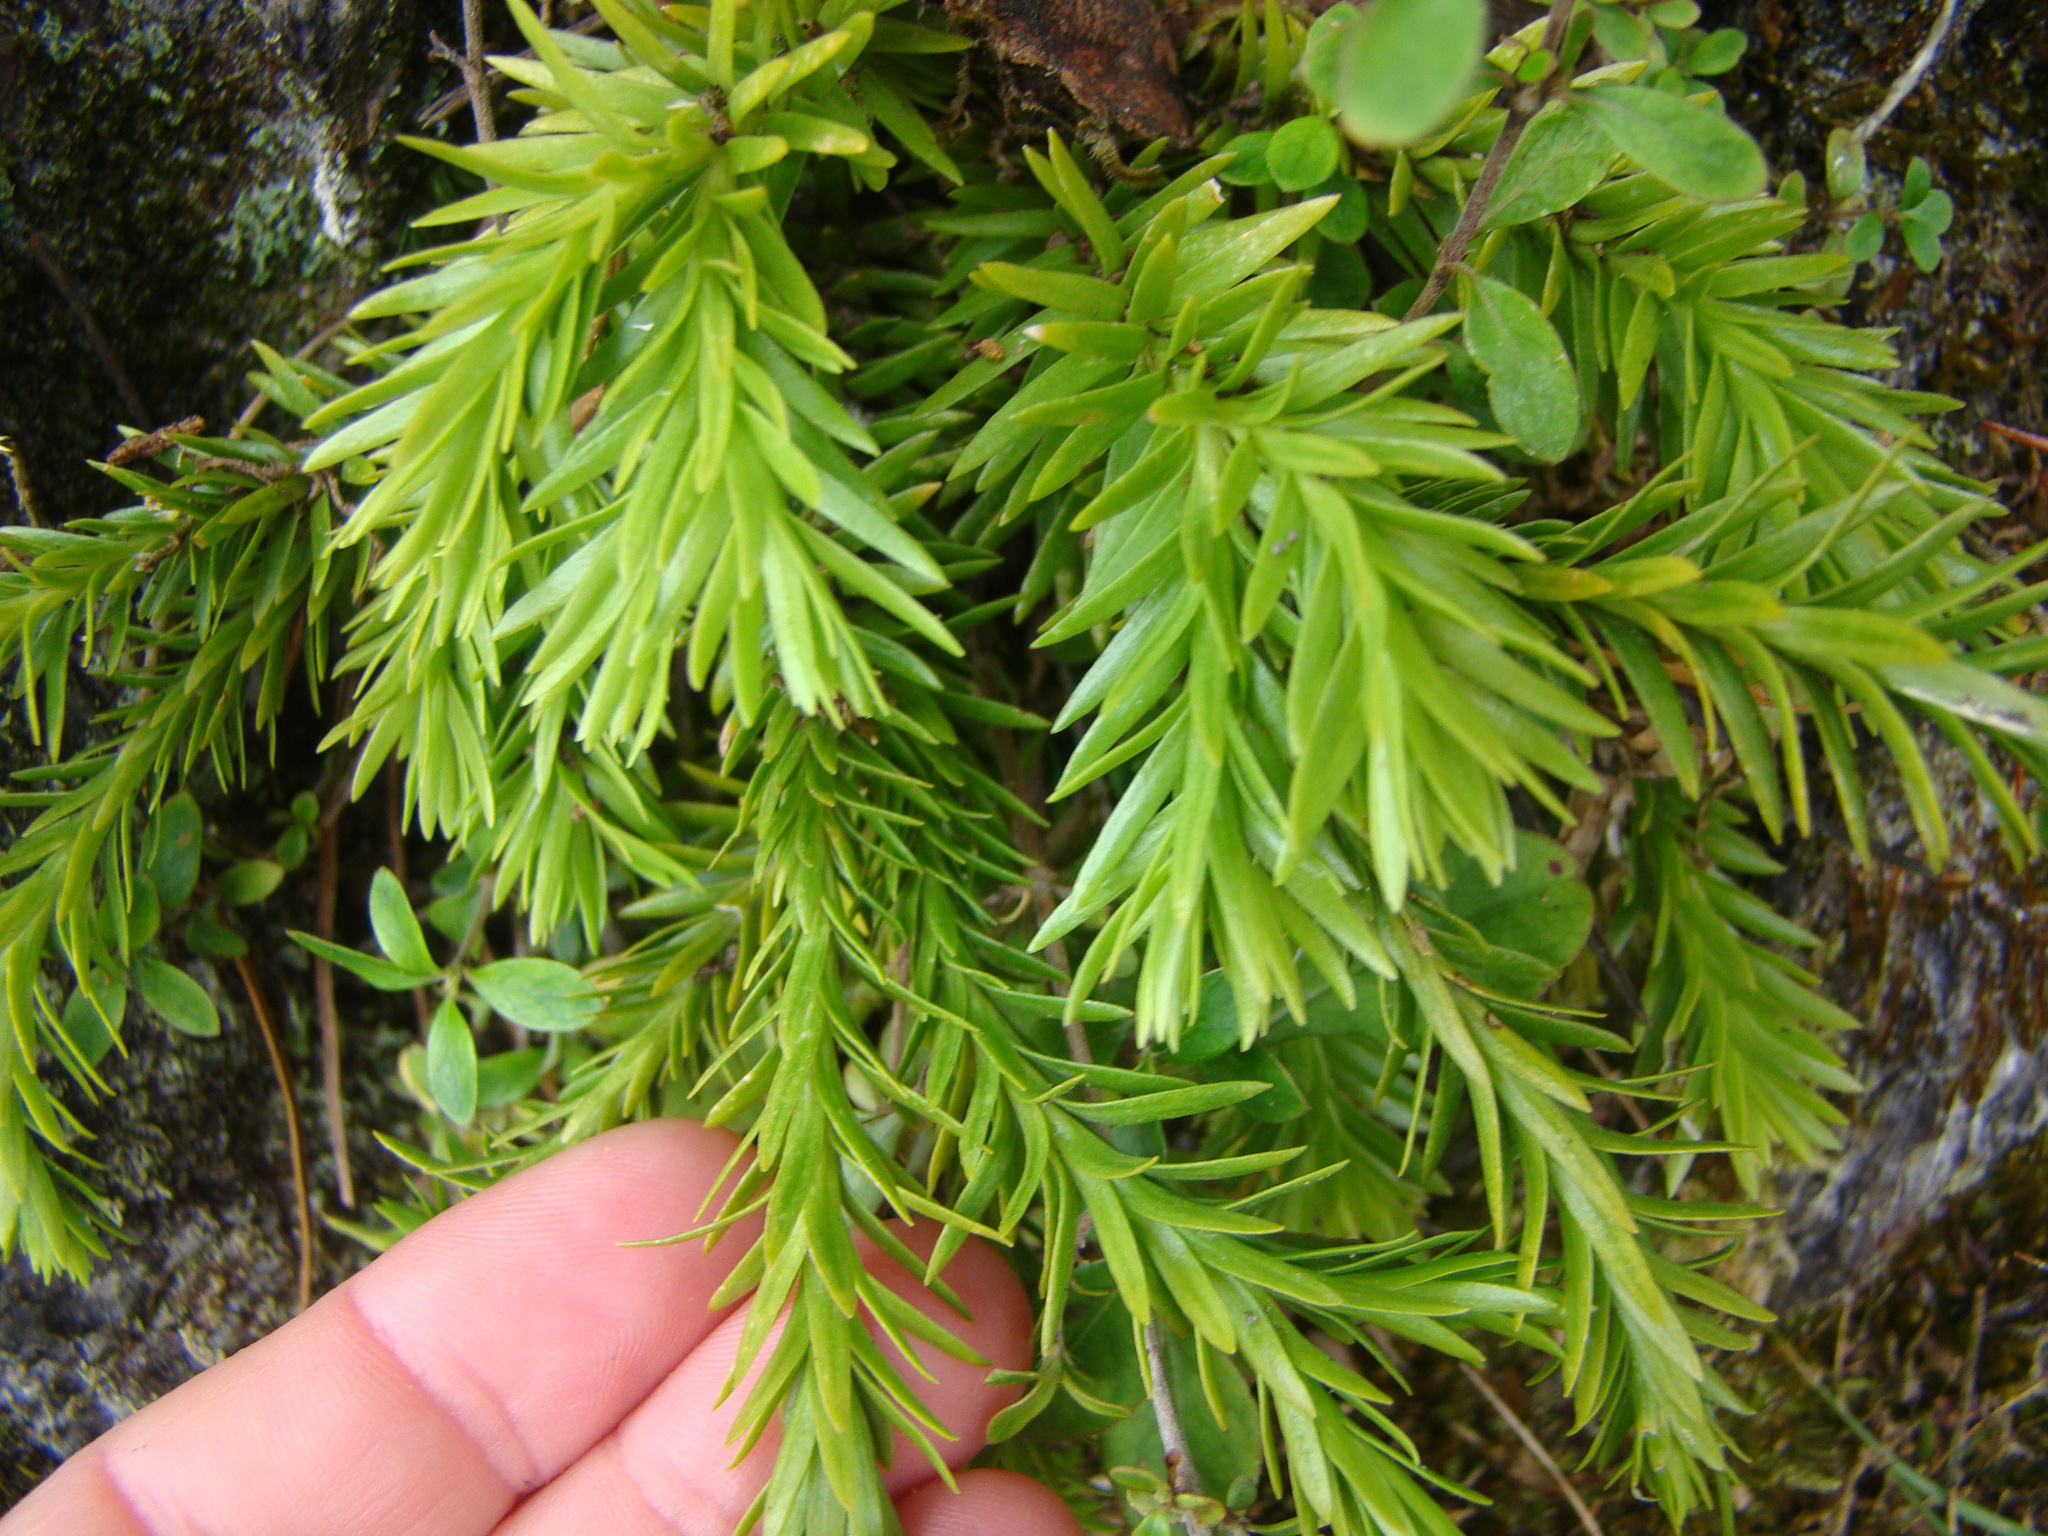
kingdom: Plantae
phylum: Tracheophyta
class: Lycopodiopsida
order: Lycopodiales
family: Lycopodiaceae
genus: Phlegmariurus
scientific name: Phlegmariurus varius
